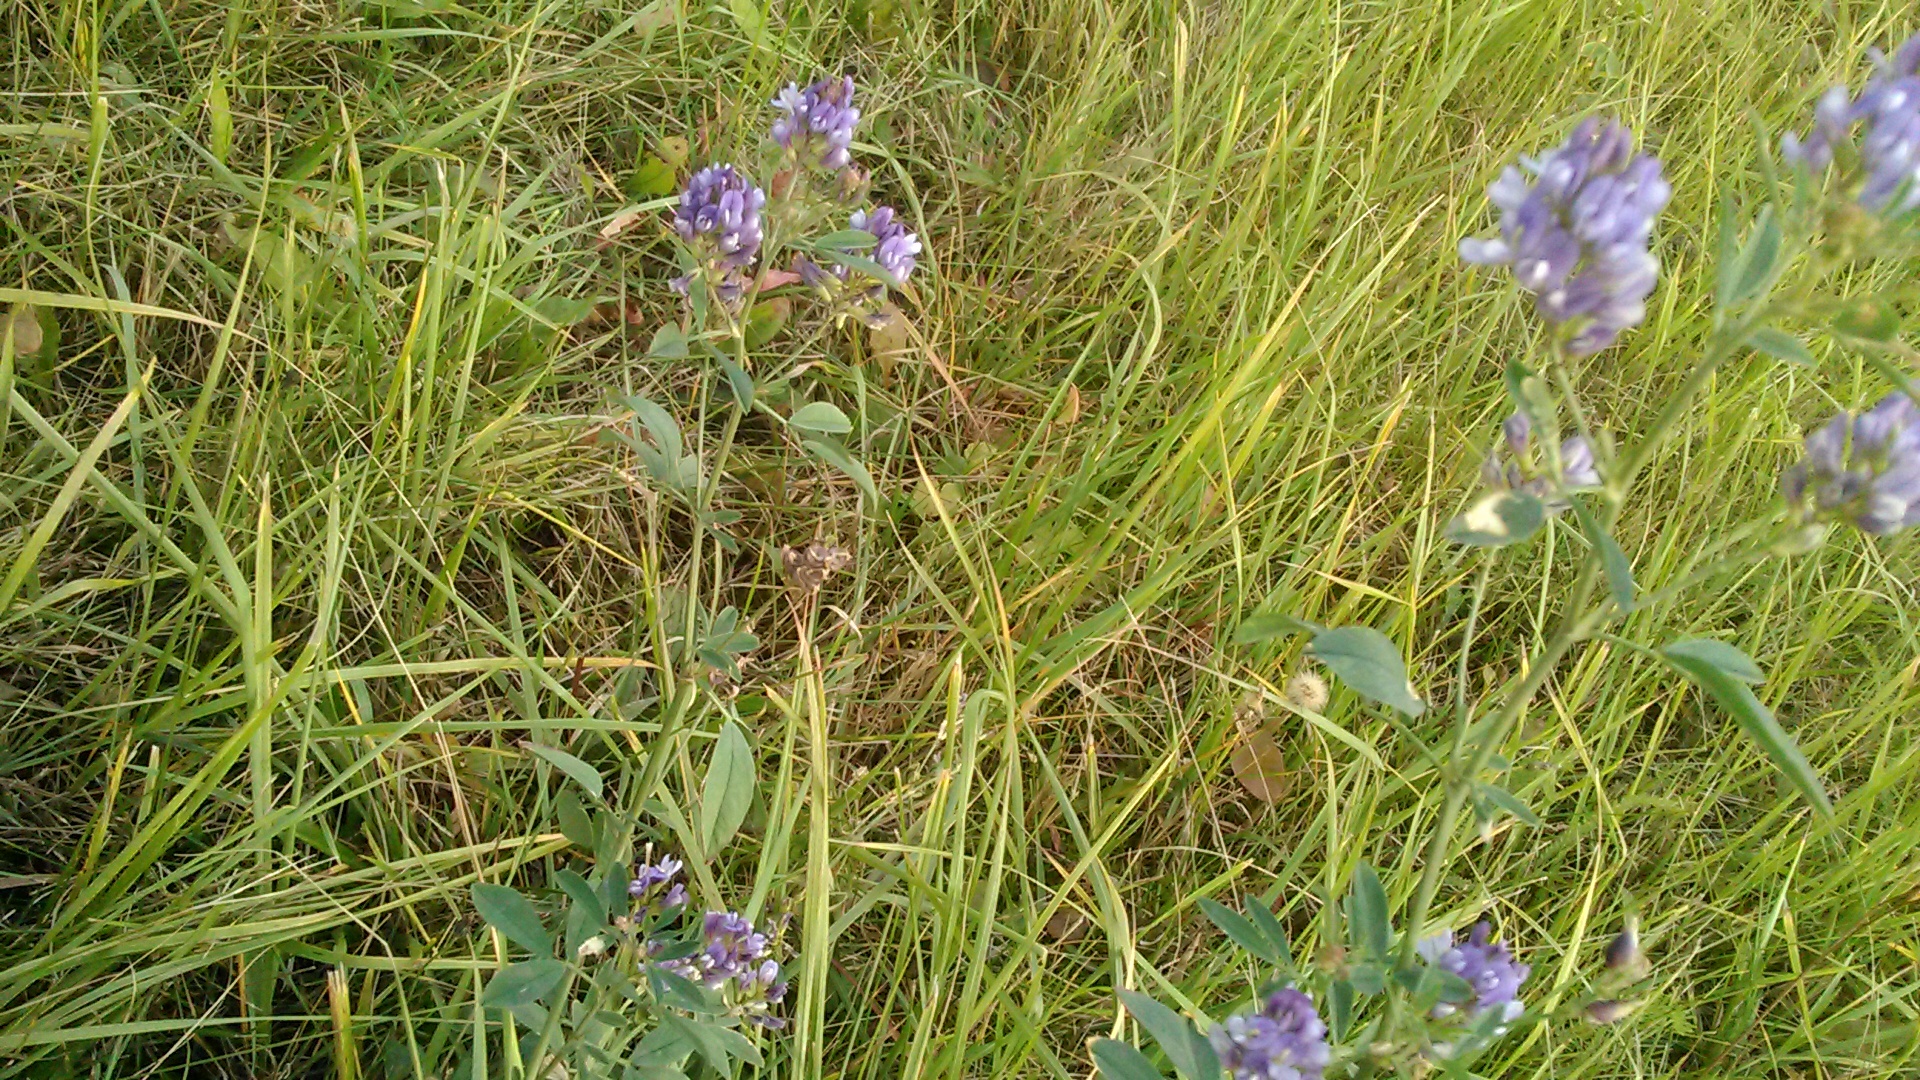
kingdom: Plantae
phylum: Tracheophyta
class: Magnoliopsida
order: Fabales
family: Fabaceae
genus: Medicago
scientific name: Medicago varia
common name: Sand lucerne
